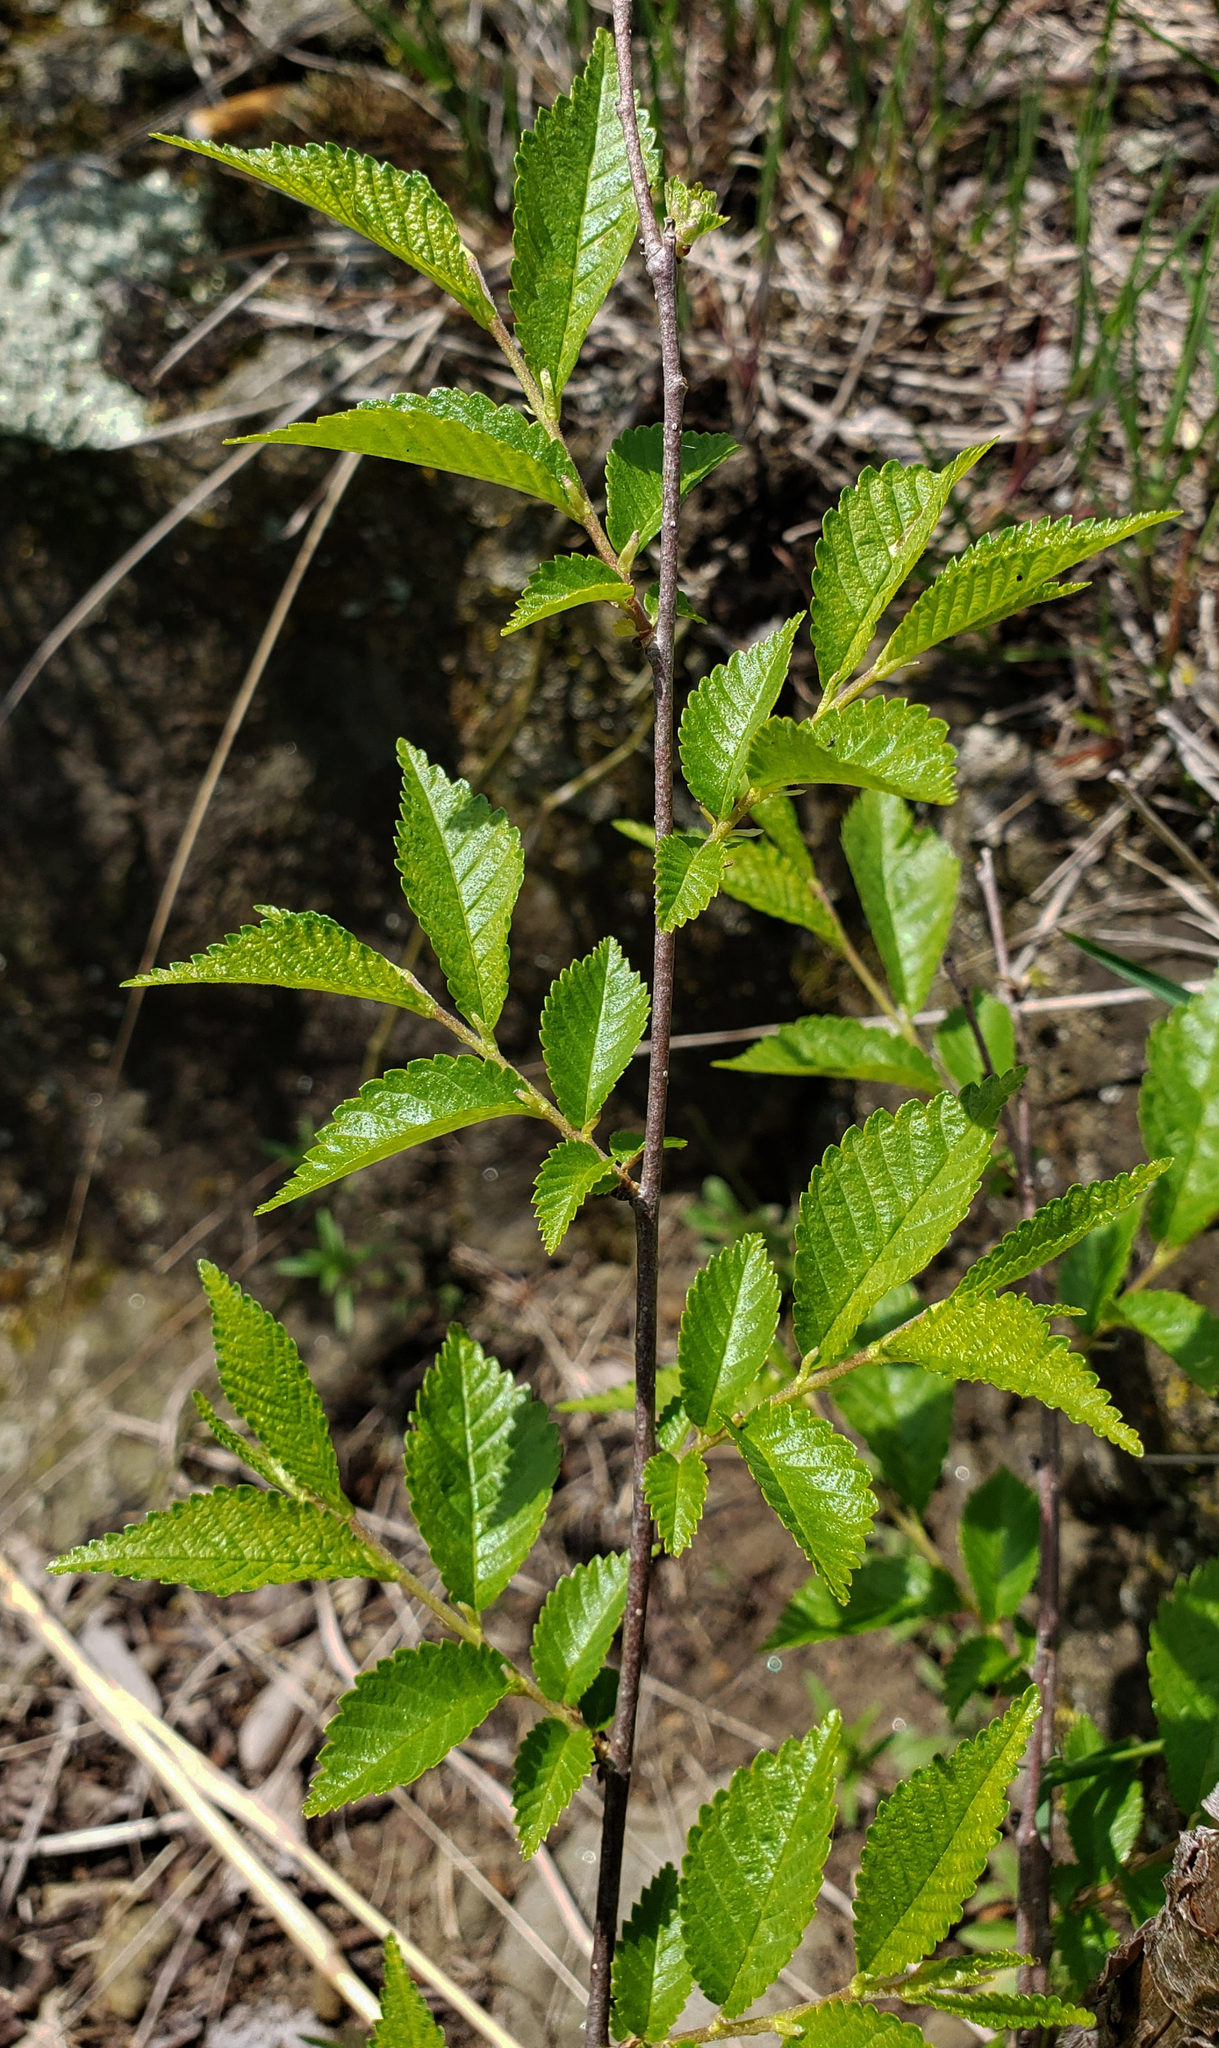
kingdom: Plantae
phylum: Tracheophyta
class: Magnoliopsida
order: Rosales
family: Ulmaceae
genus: Ulmus
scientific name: Ulmus pumila
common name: Siberian elm
